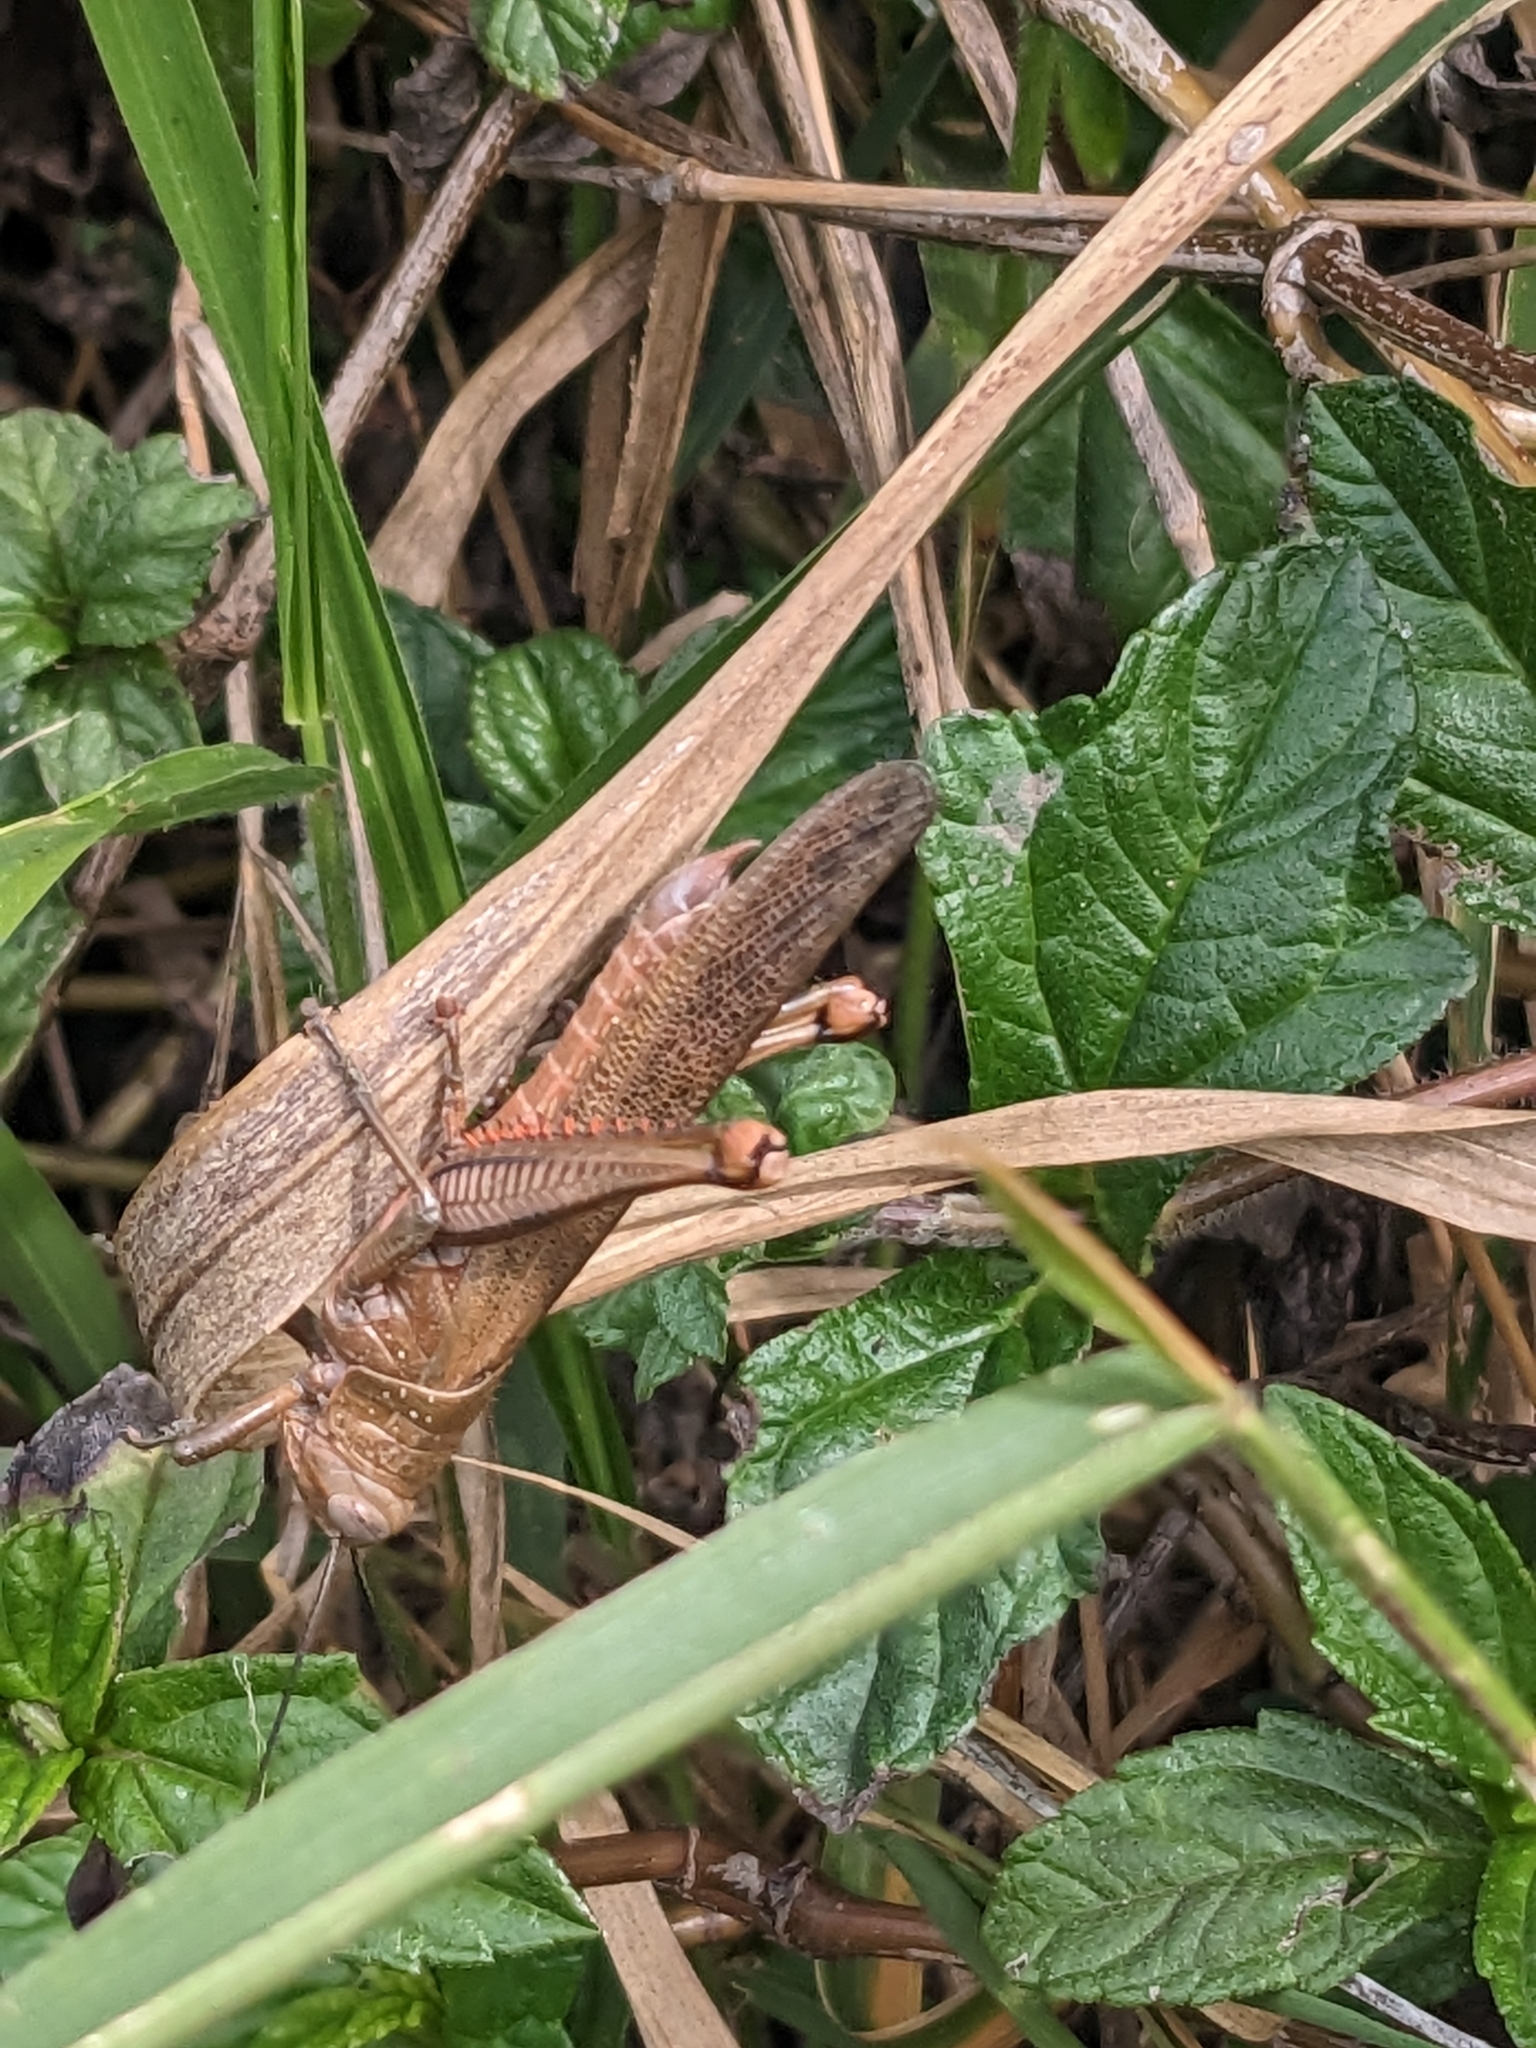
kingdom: Animalia
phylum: Arthropoda
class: Insecta
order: Orthoptera
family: Acrididae
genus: Valanga
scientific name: Valanga irregularis
